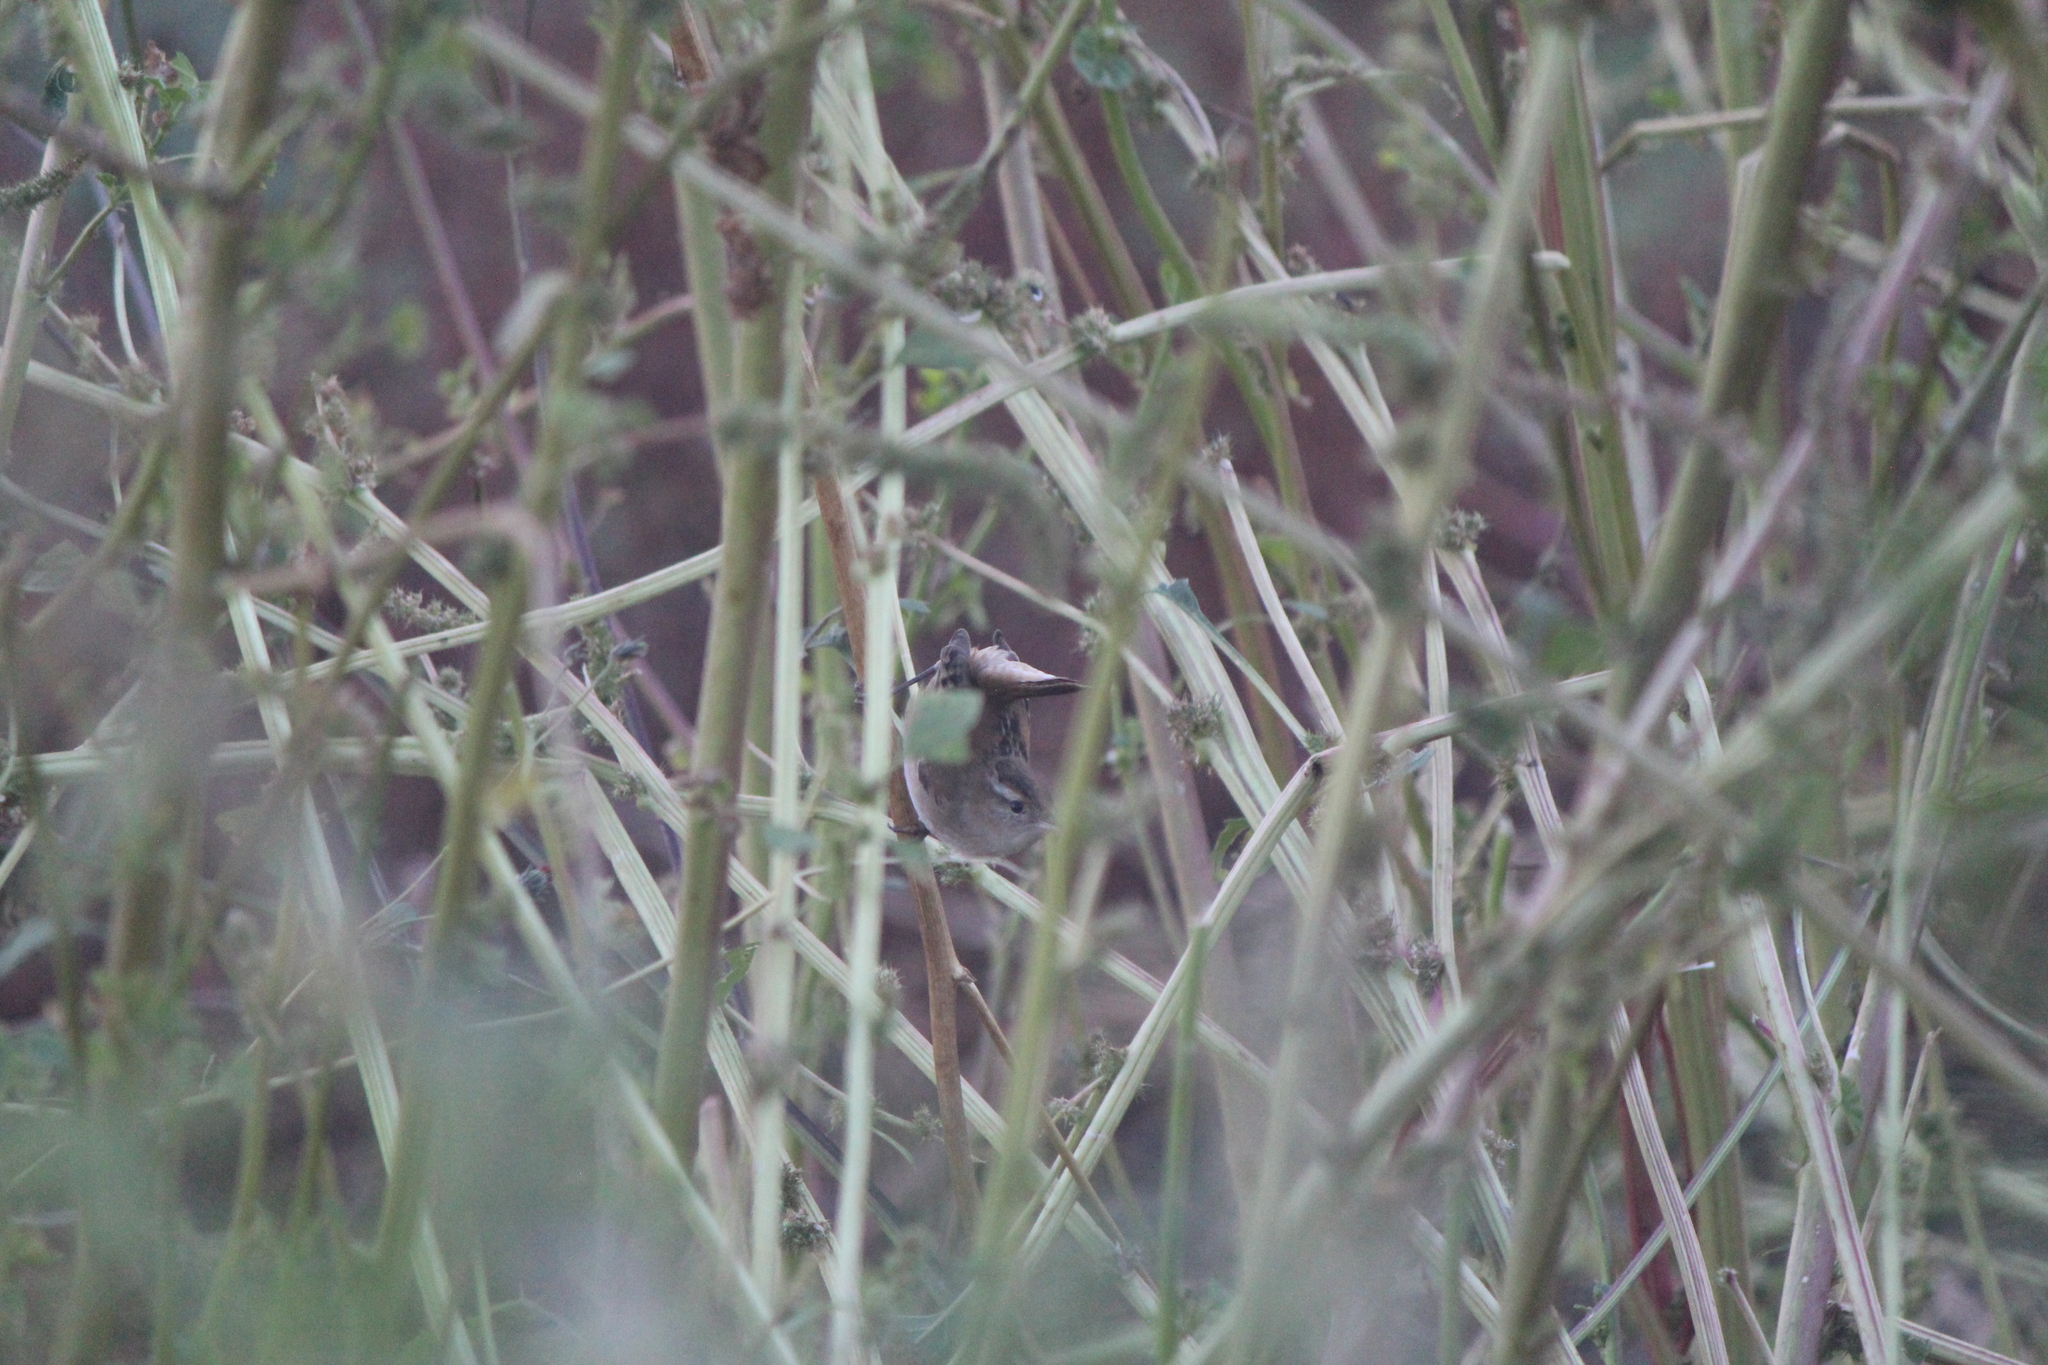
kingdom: Animalia
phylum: Chordata
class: Aves
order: Passeriformes
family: Troglodytidae
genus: Cistothorus
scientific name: Cistothorus palustris
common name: Marsh wren
